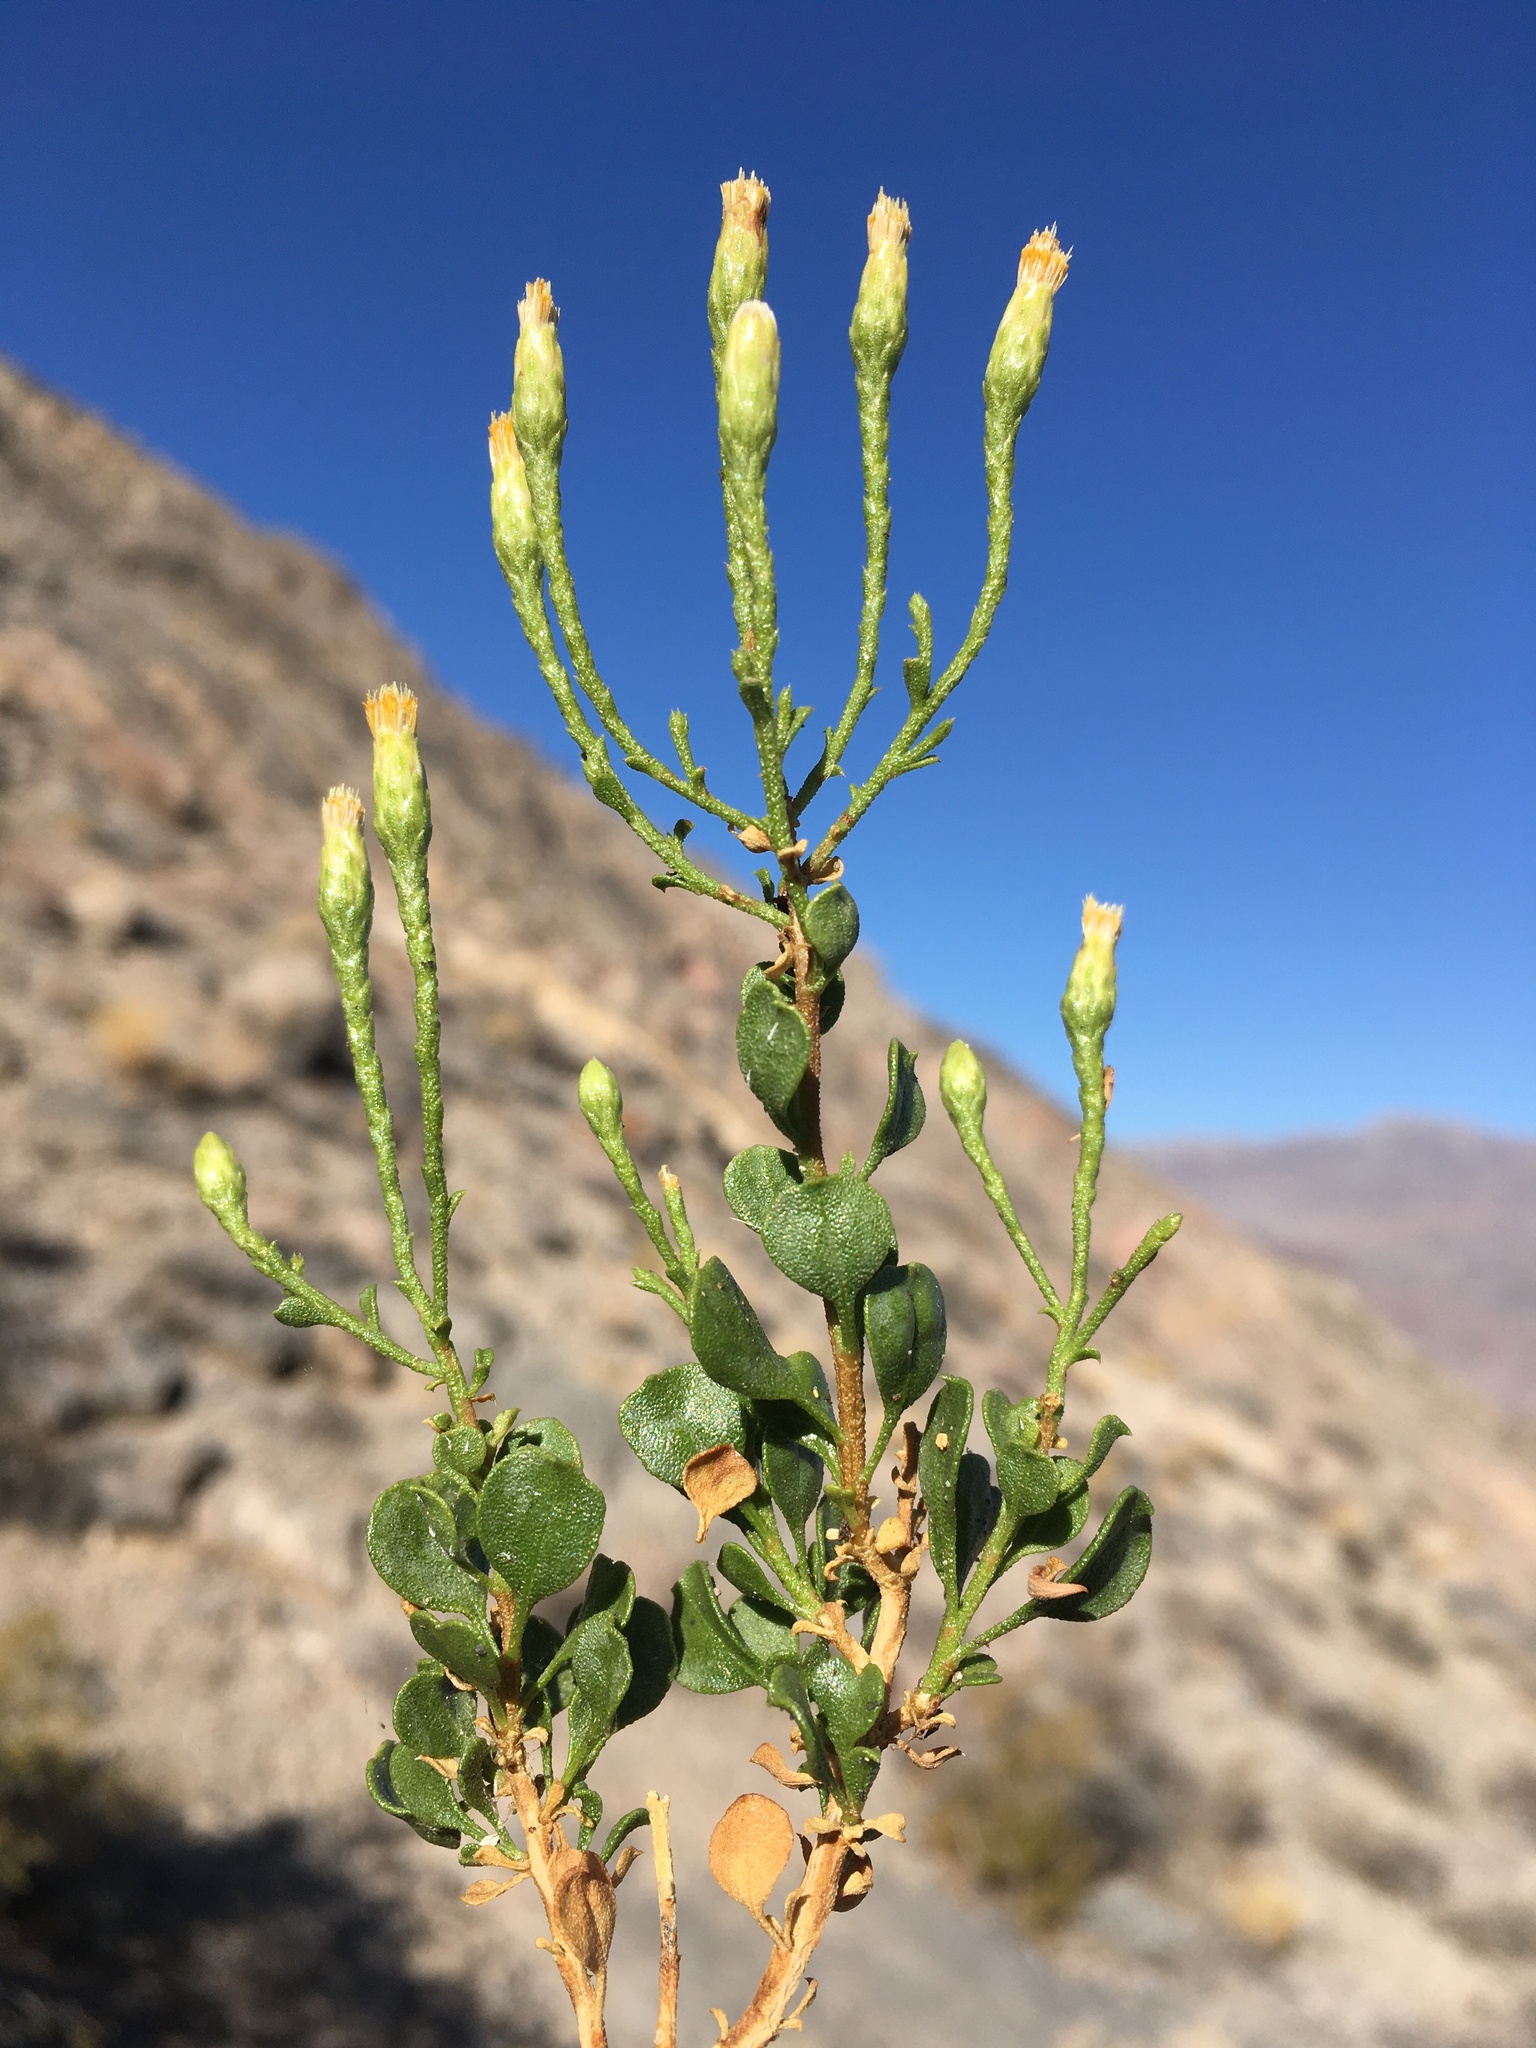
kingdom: Plantae
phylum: Tracheophyta
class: Magnoliopsida
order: Asterales
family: Asteraceae
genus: Ericameria
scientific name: Ericameria cuneata
